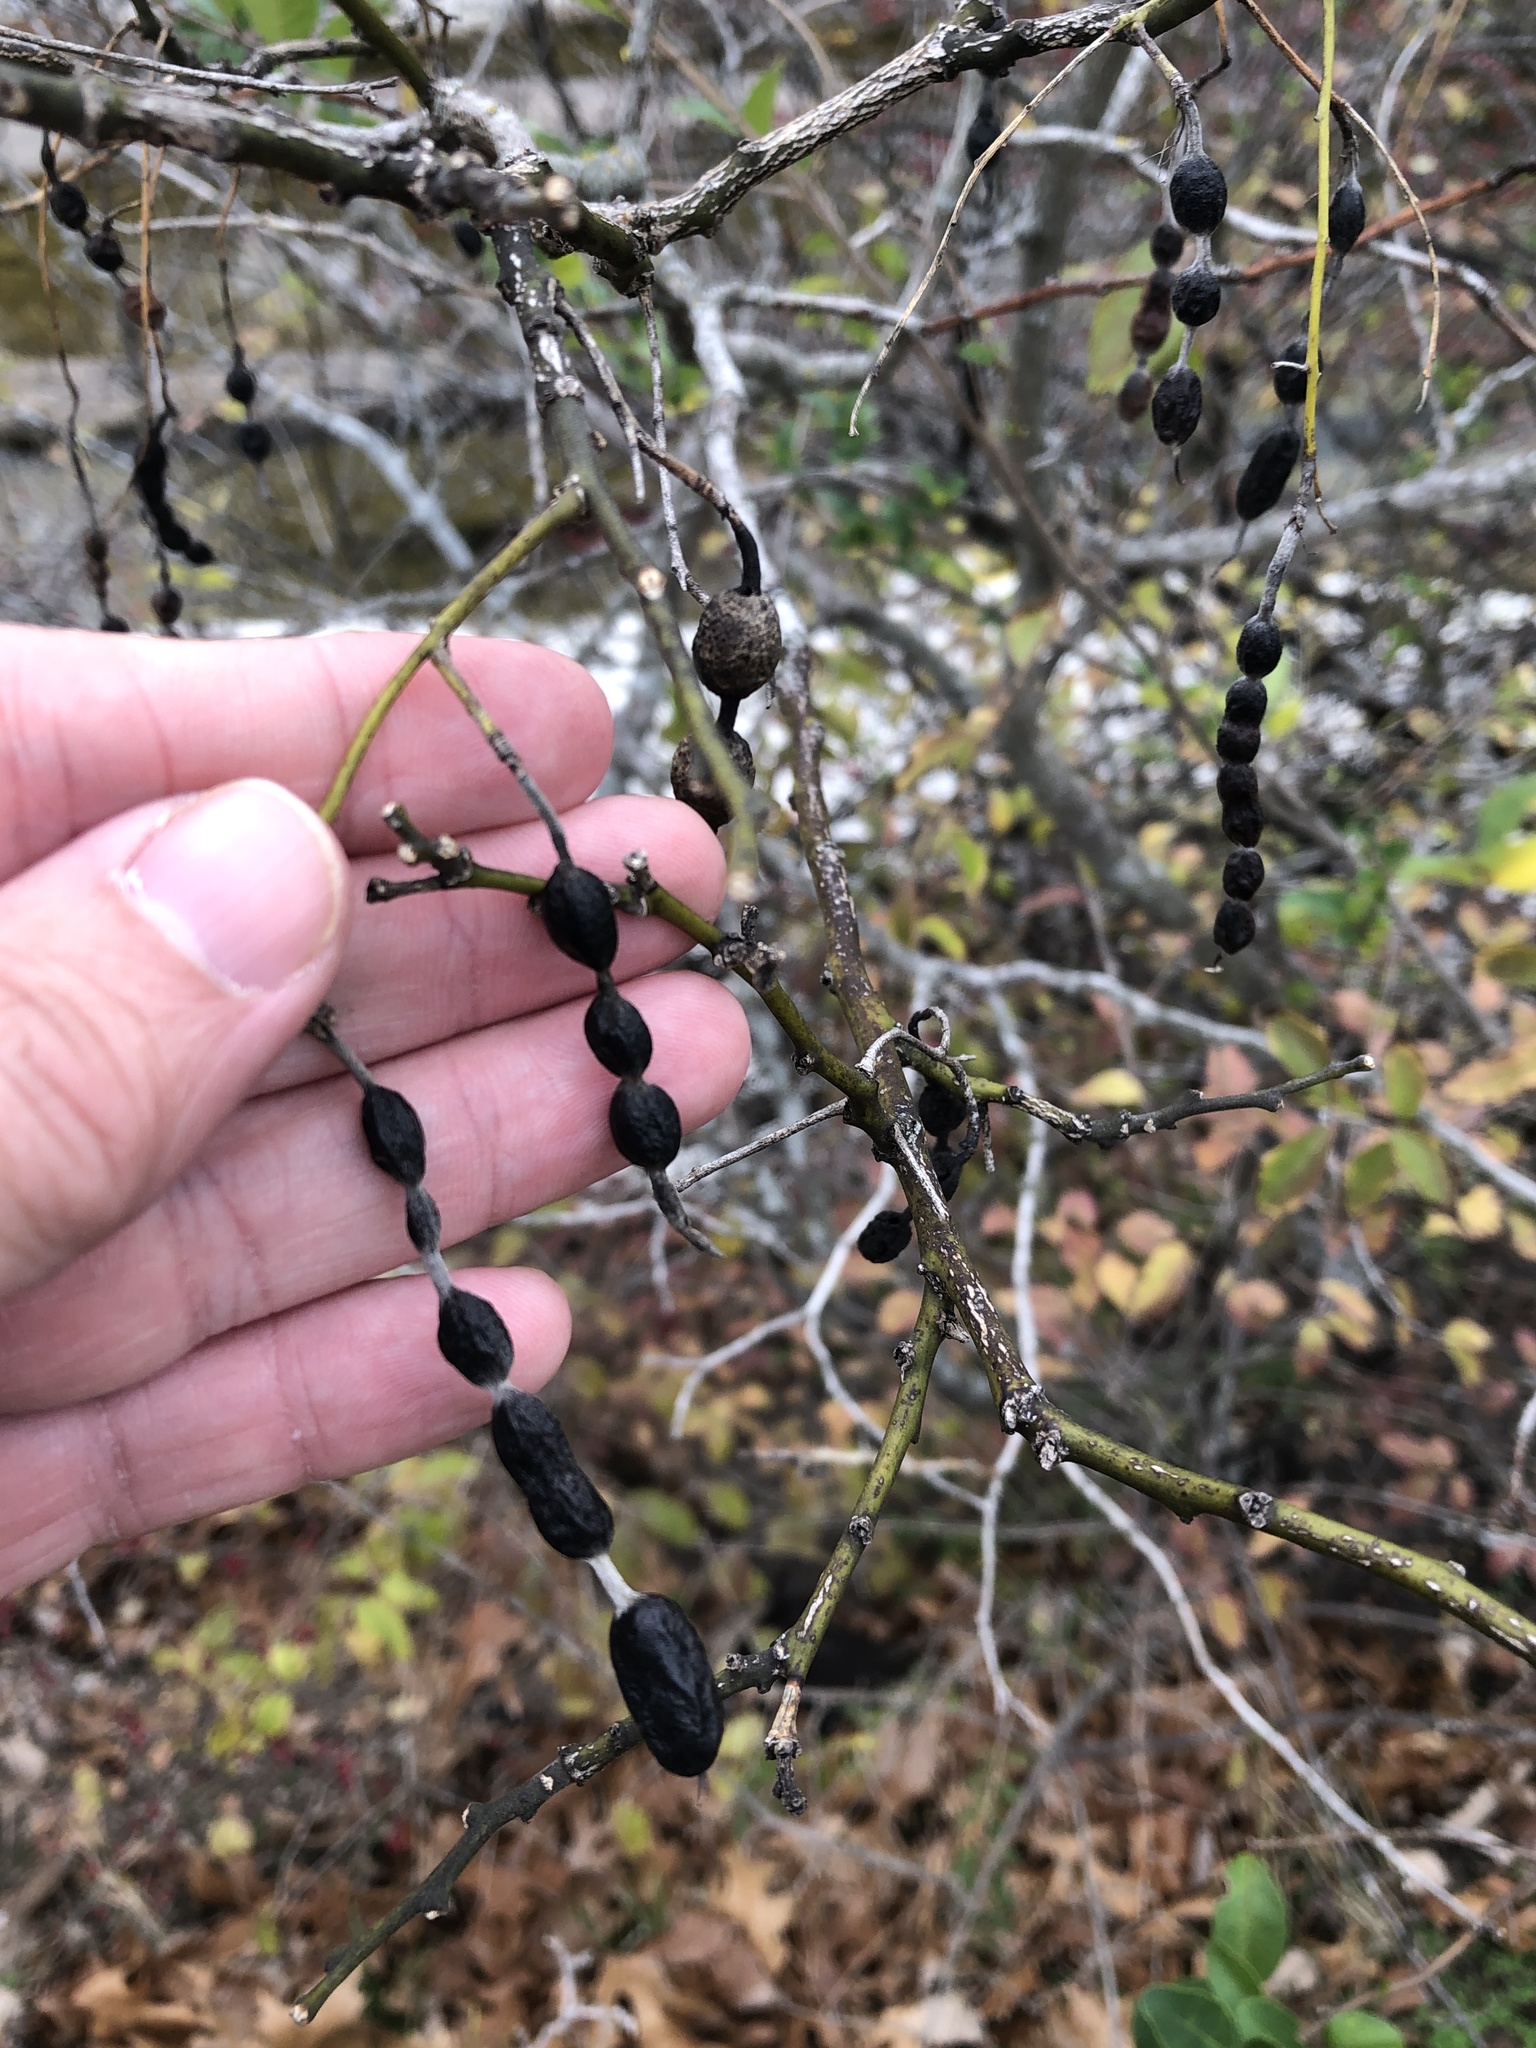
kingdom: Plantae
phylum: Tracheophyta
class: Magnoliopsida
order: Fabales
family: Fabaceae
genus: Styphnolobium
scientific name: Styphnolobium affine
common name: Texas sophora
